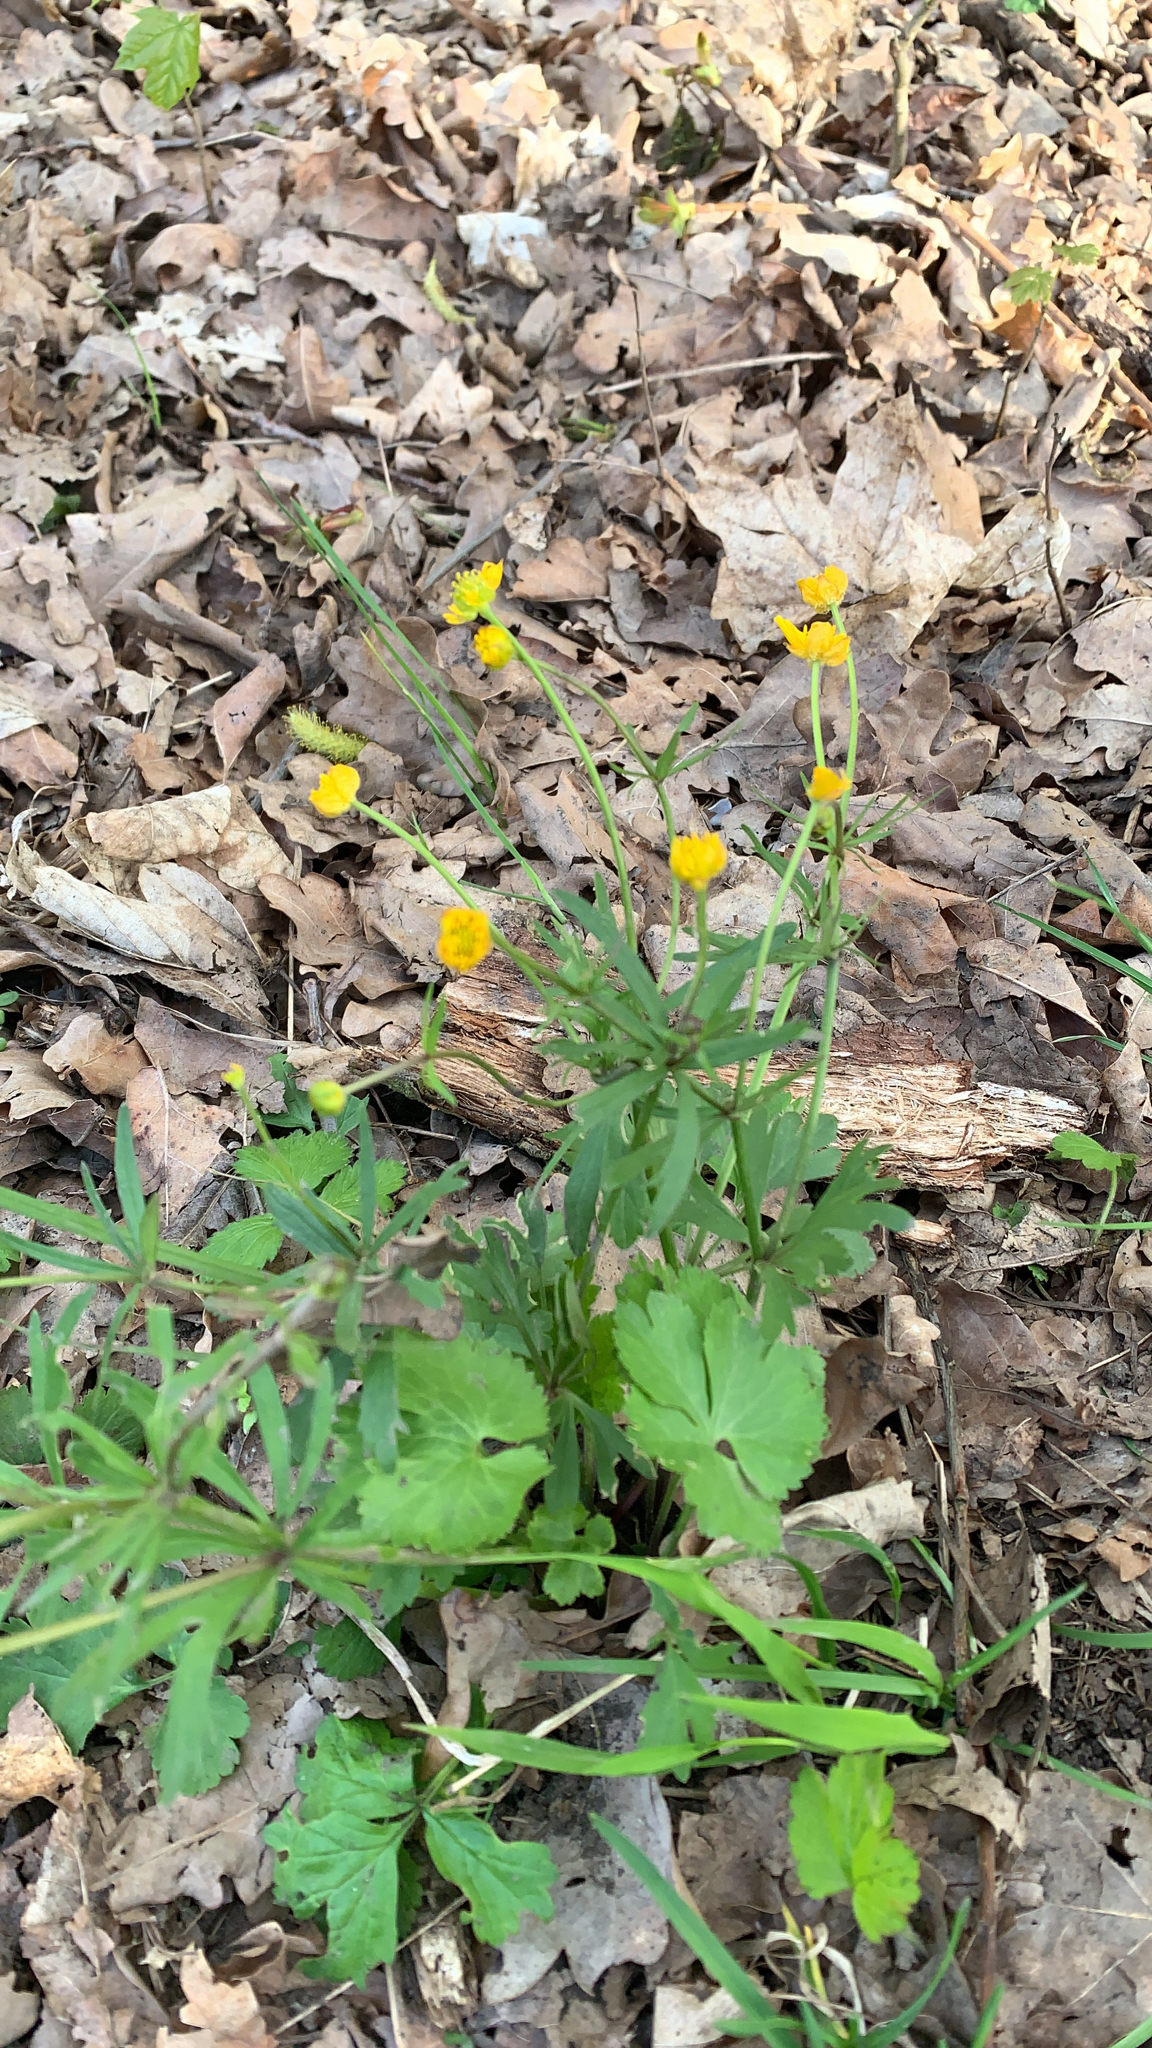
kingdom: Plantae
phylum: Tracheophyta
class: Magnoliopsida
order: Ranunculales
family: Ranunculaceae
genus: Ranunculus
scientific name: Ranunculus auricomus
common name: Goldilocks buttercup
